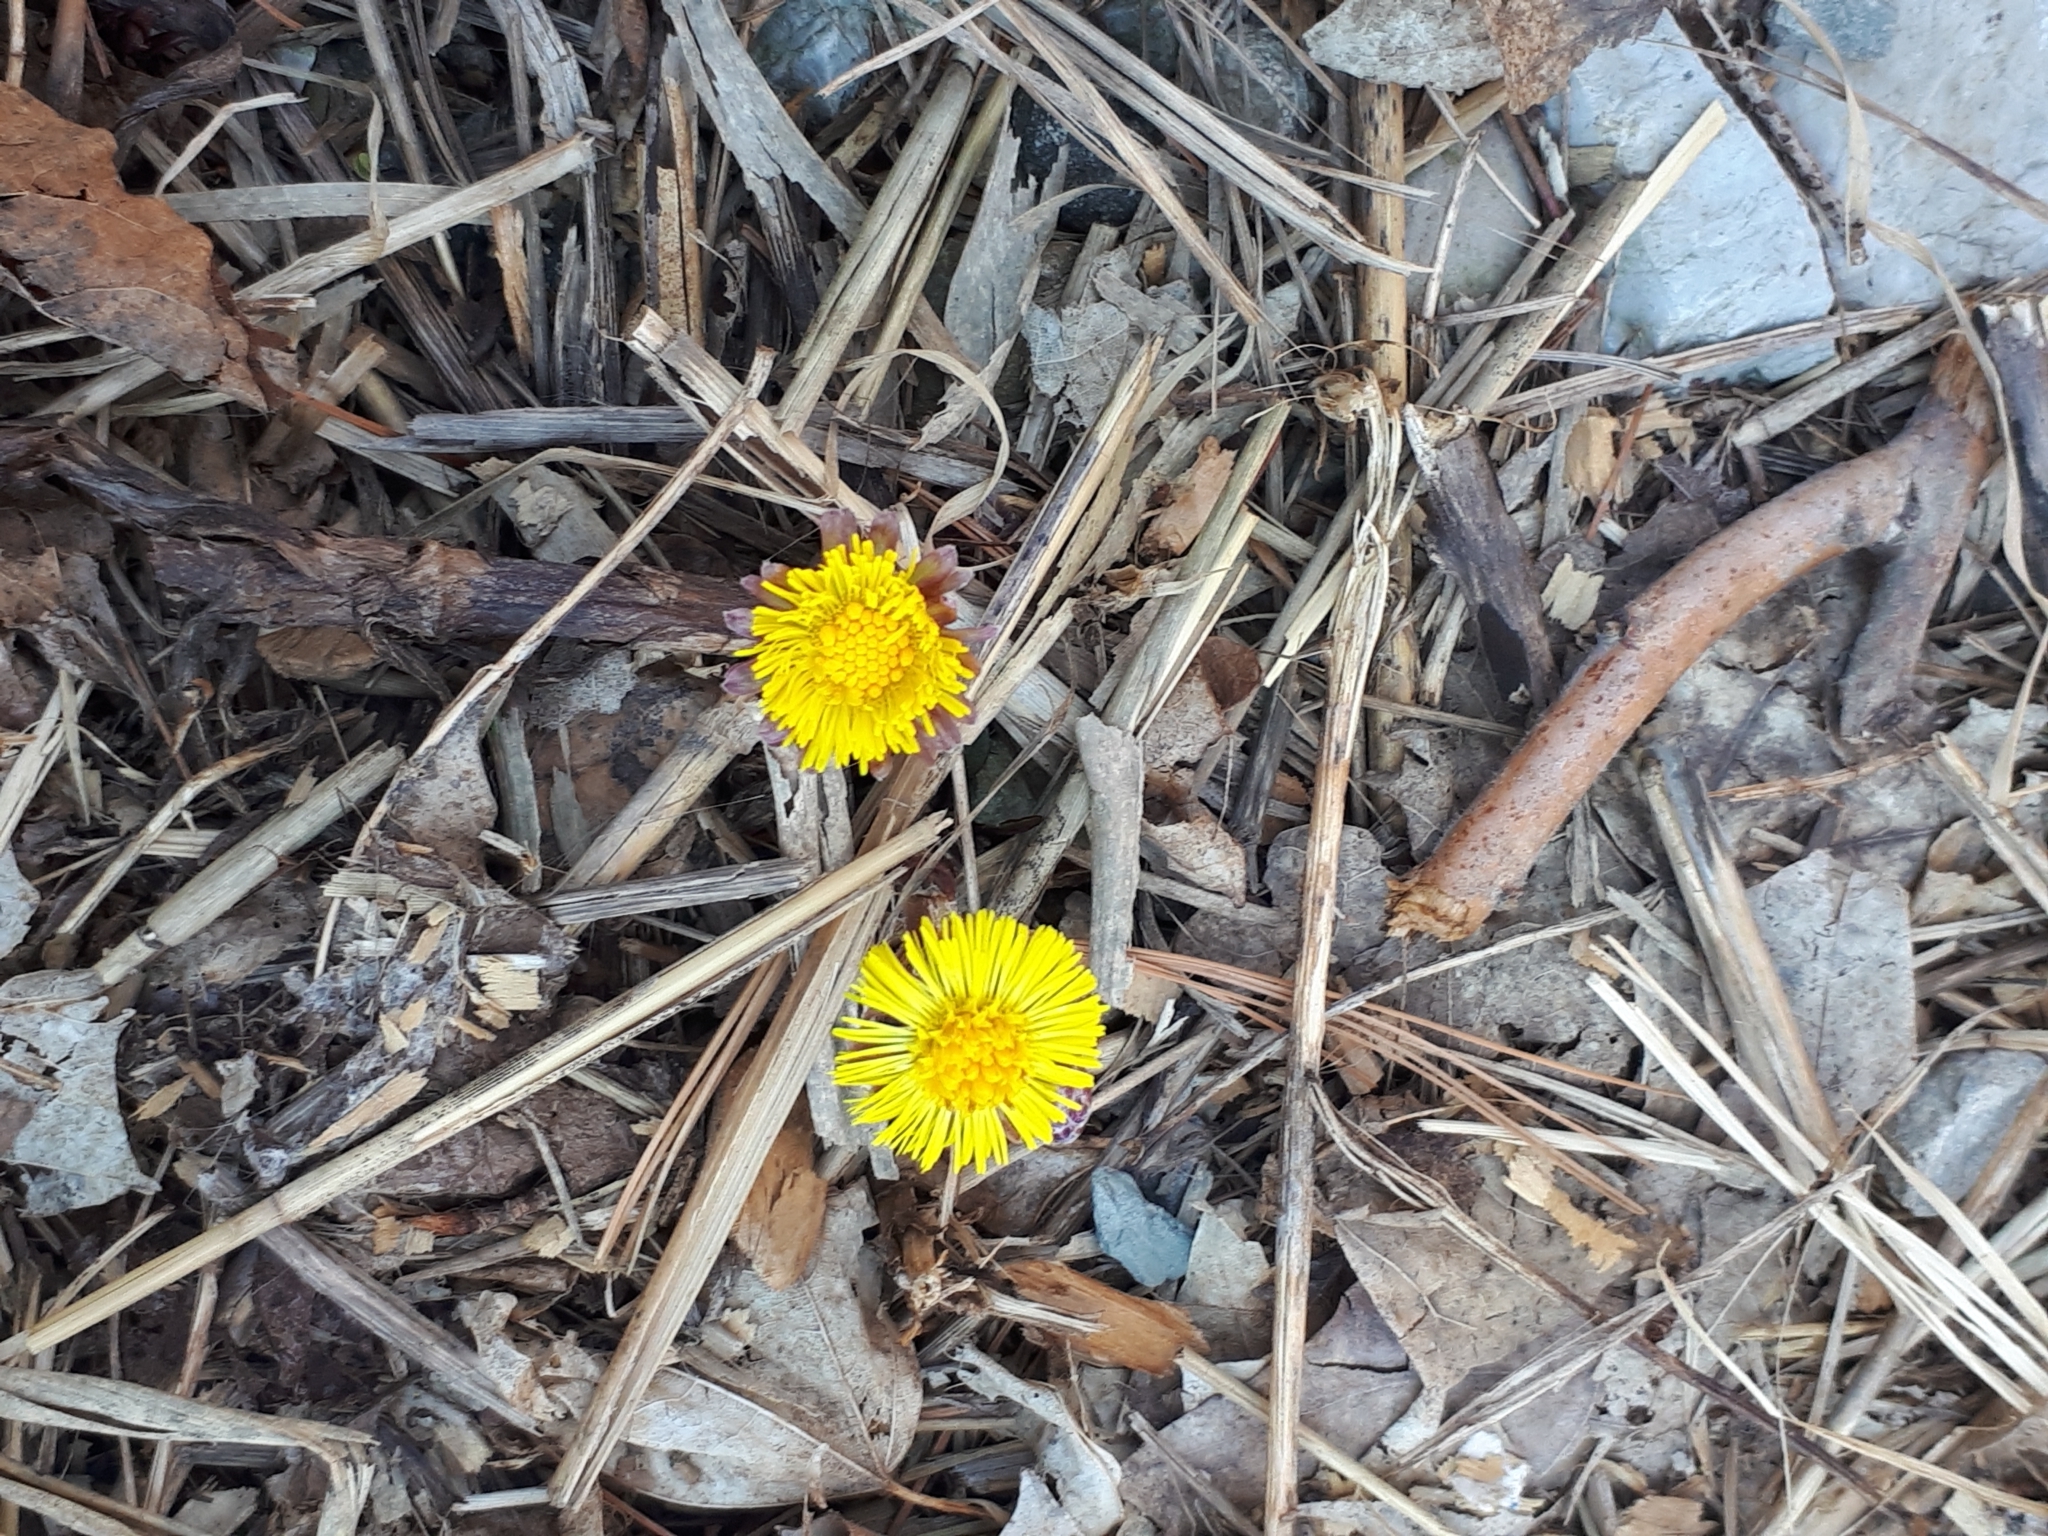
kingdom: Plantae
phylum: Tracheophyta
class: Magnoliopsida
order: Asterales
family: Asteraceae
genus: Tussilago
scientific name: Tussilago farfara
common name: Coltsfoot
